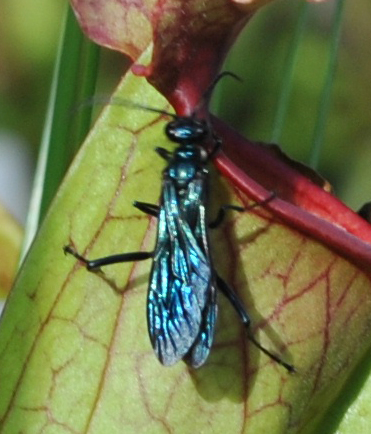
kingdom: Animalia
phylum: Arthropoda
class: Insecta
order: Hymenoptera
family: Sphecidae
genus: Chalybion
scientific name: Chalybion californicum
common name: Mud dauber
